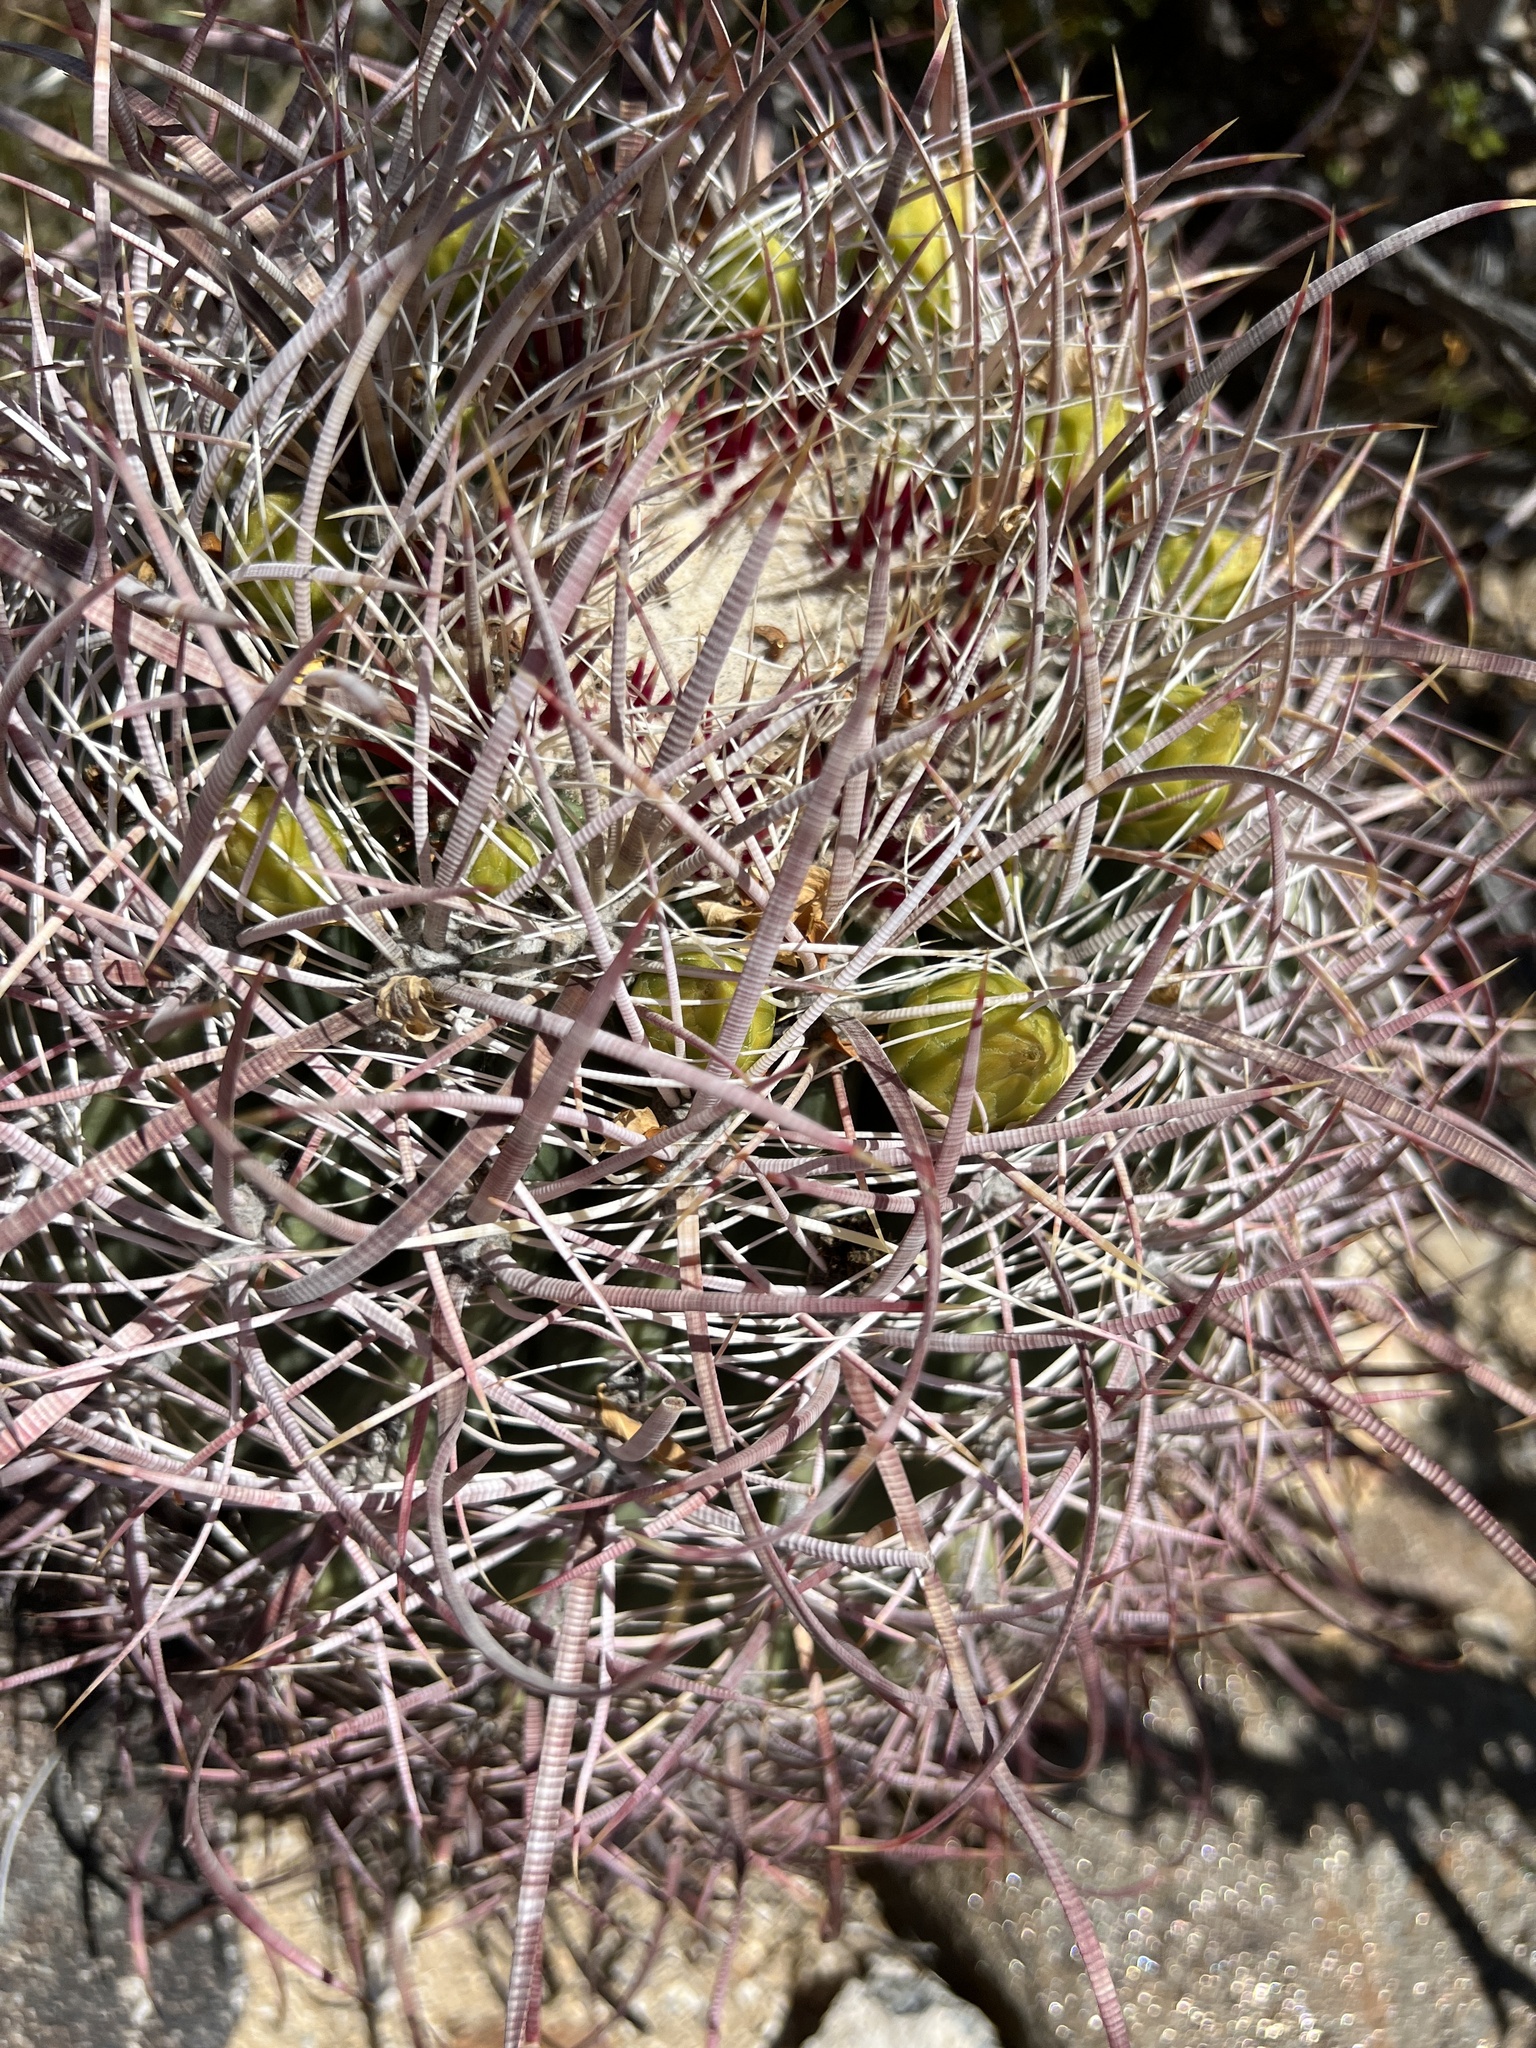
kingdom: Plantae
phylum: Tracheophyta
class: Magnoliopsida
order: Caryophyllales
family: Cactaceae
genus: Ferocactus
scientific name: Ferocactus cylindraceus
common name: California barrel cactus
